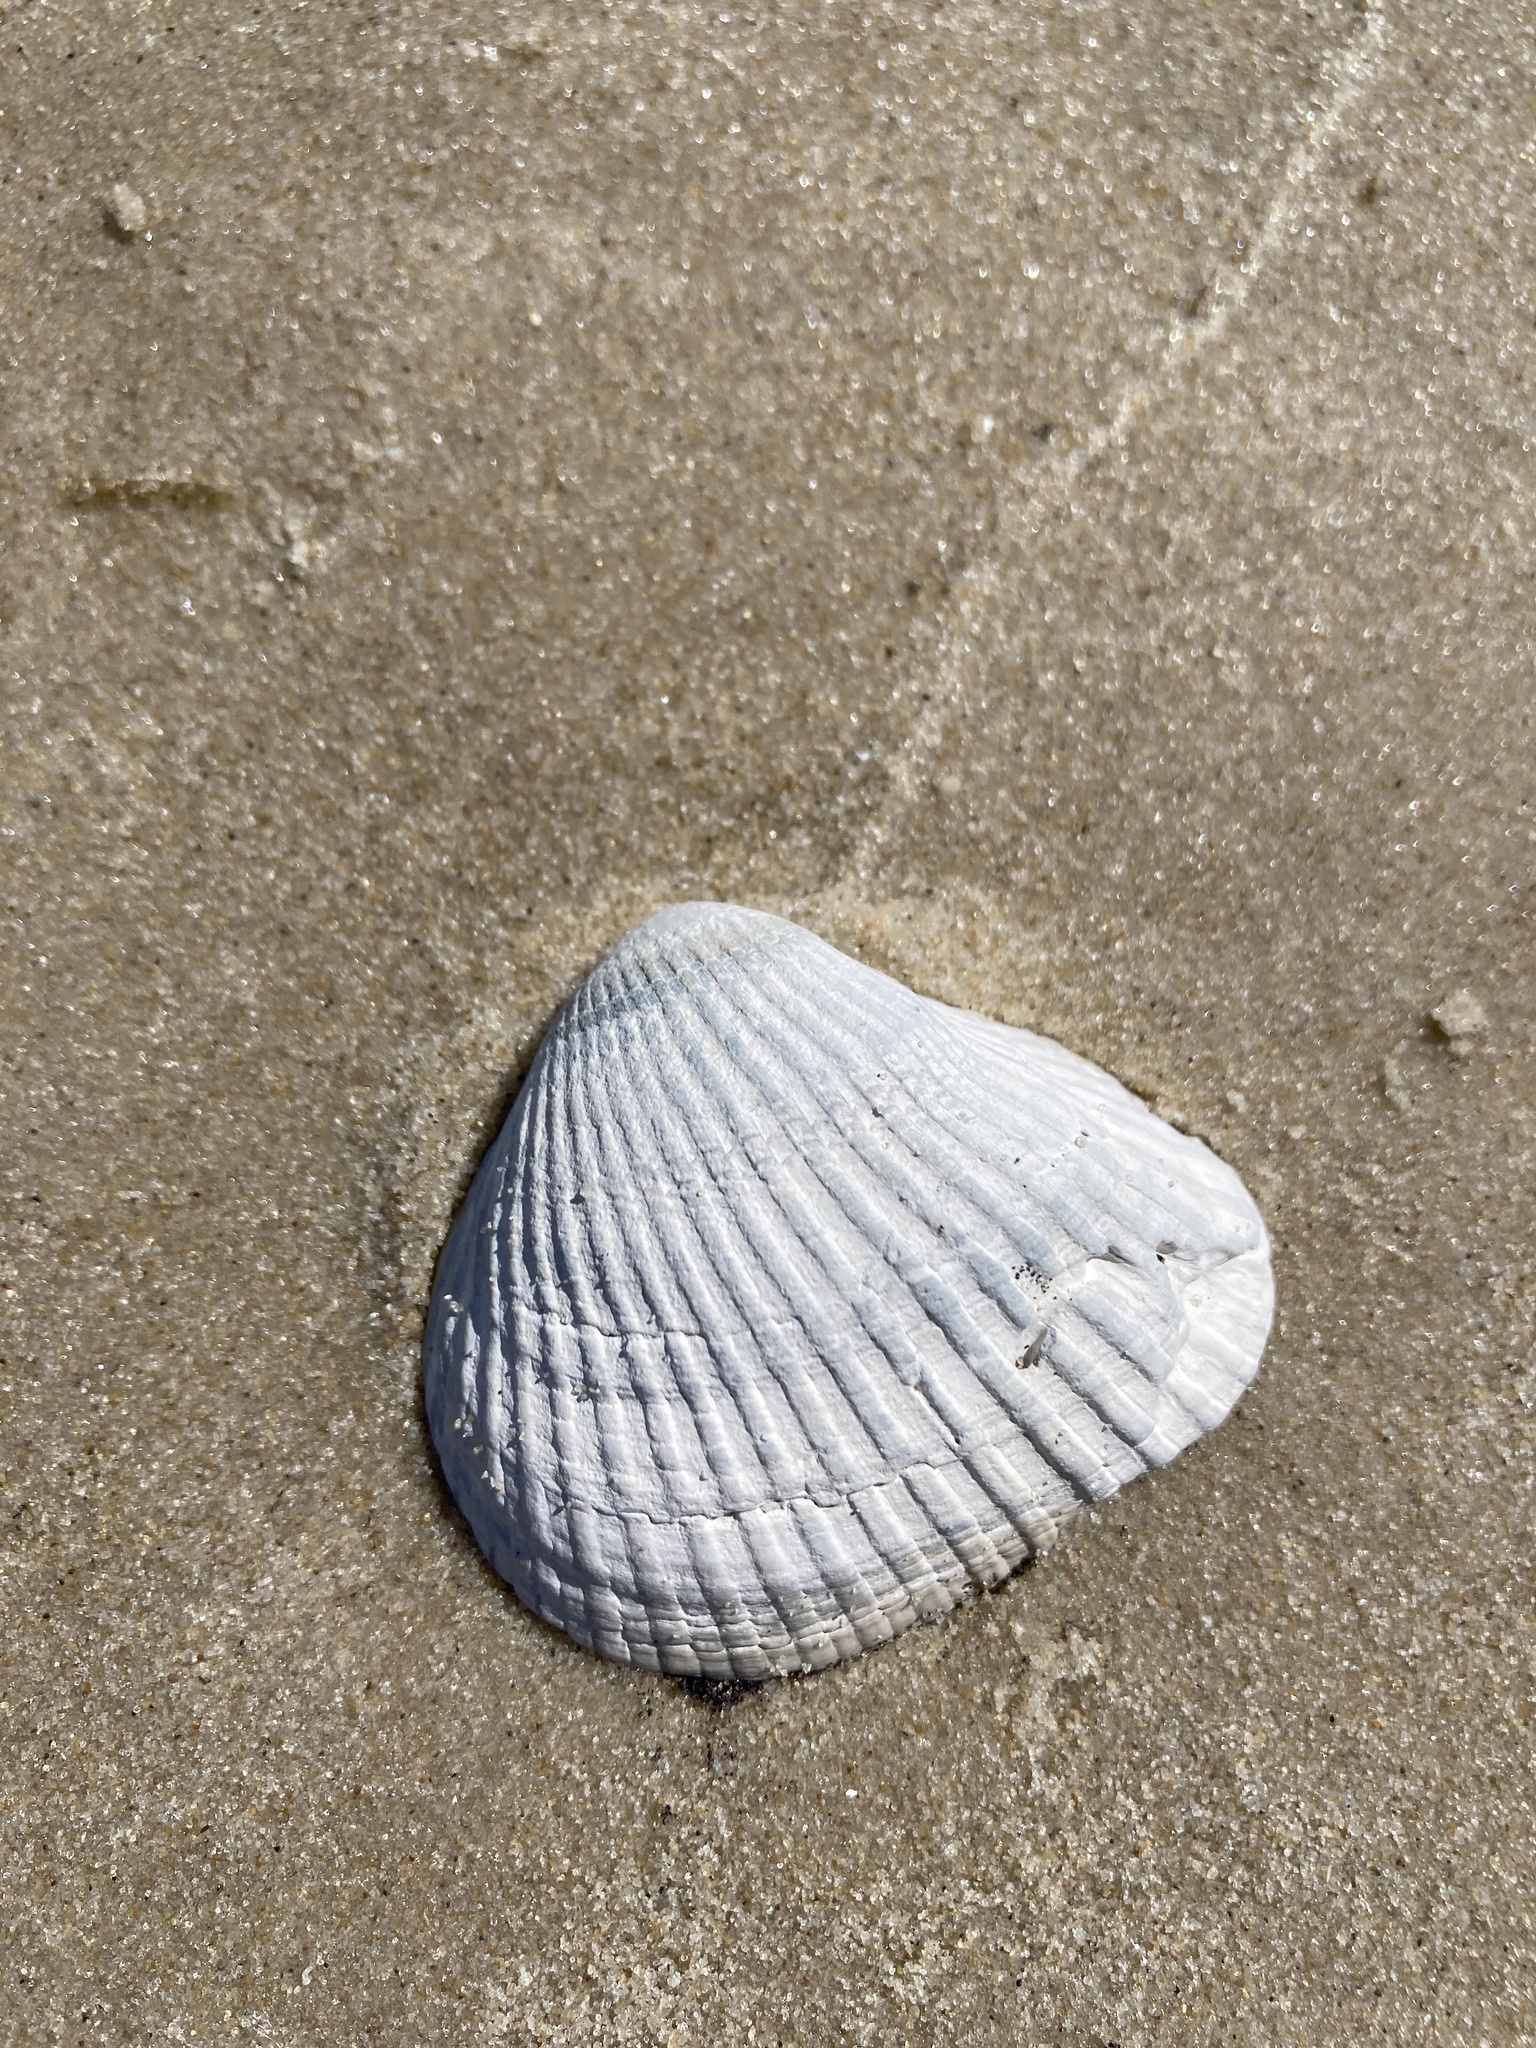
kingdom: Animalia
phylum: Mollusca
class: Bivalvia
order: Arcida
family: Noetiidae
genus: Noetia
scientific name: Noetia ponderosa
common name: Ponderous ark
